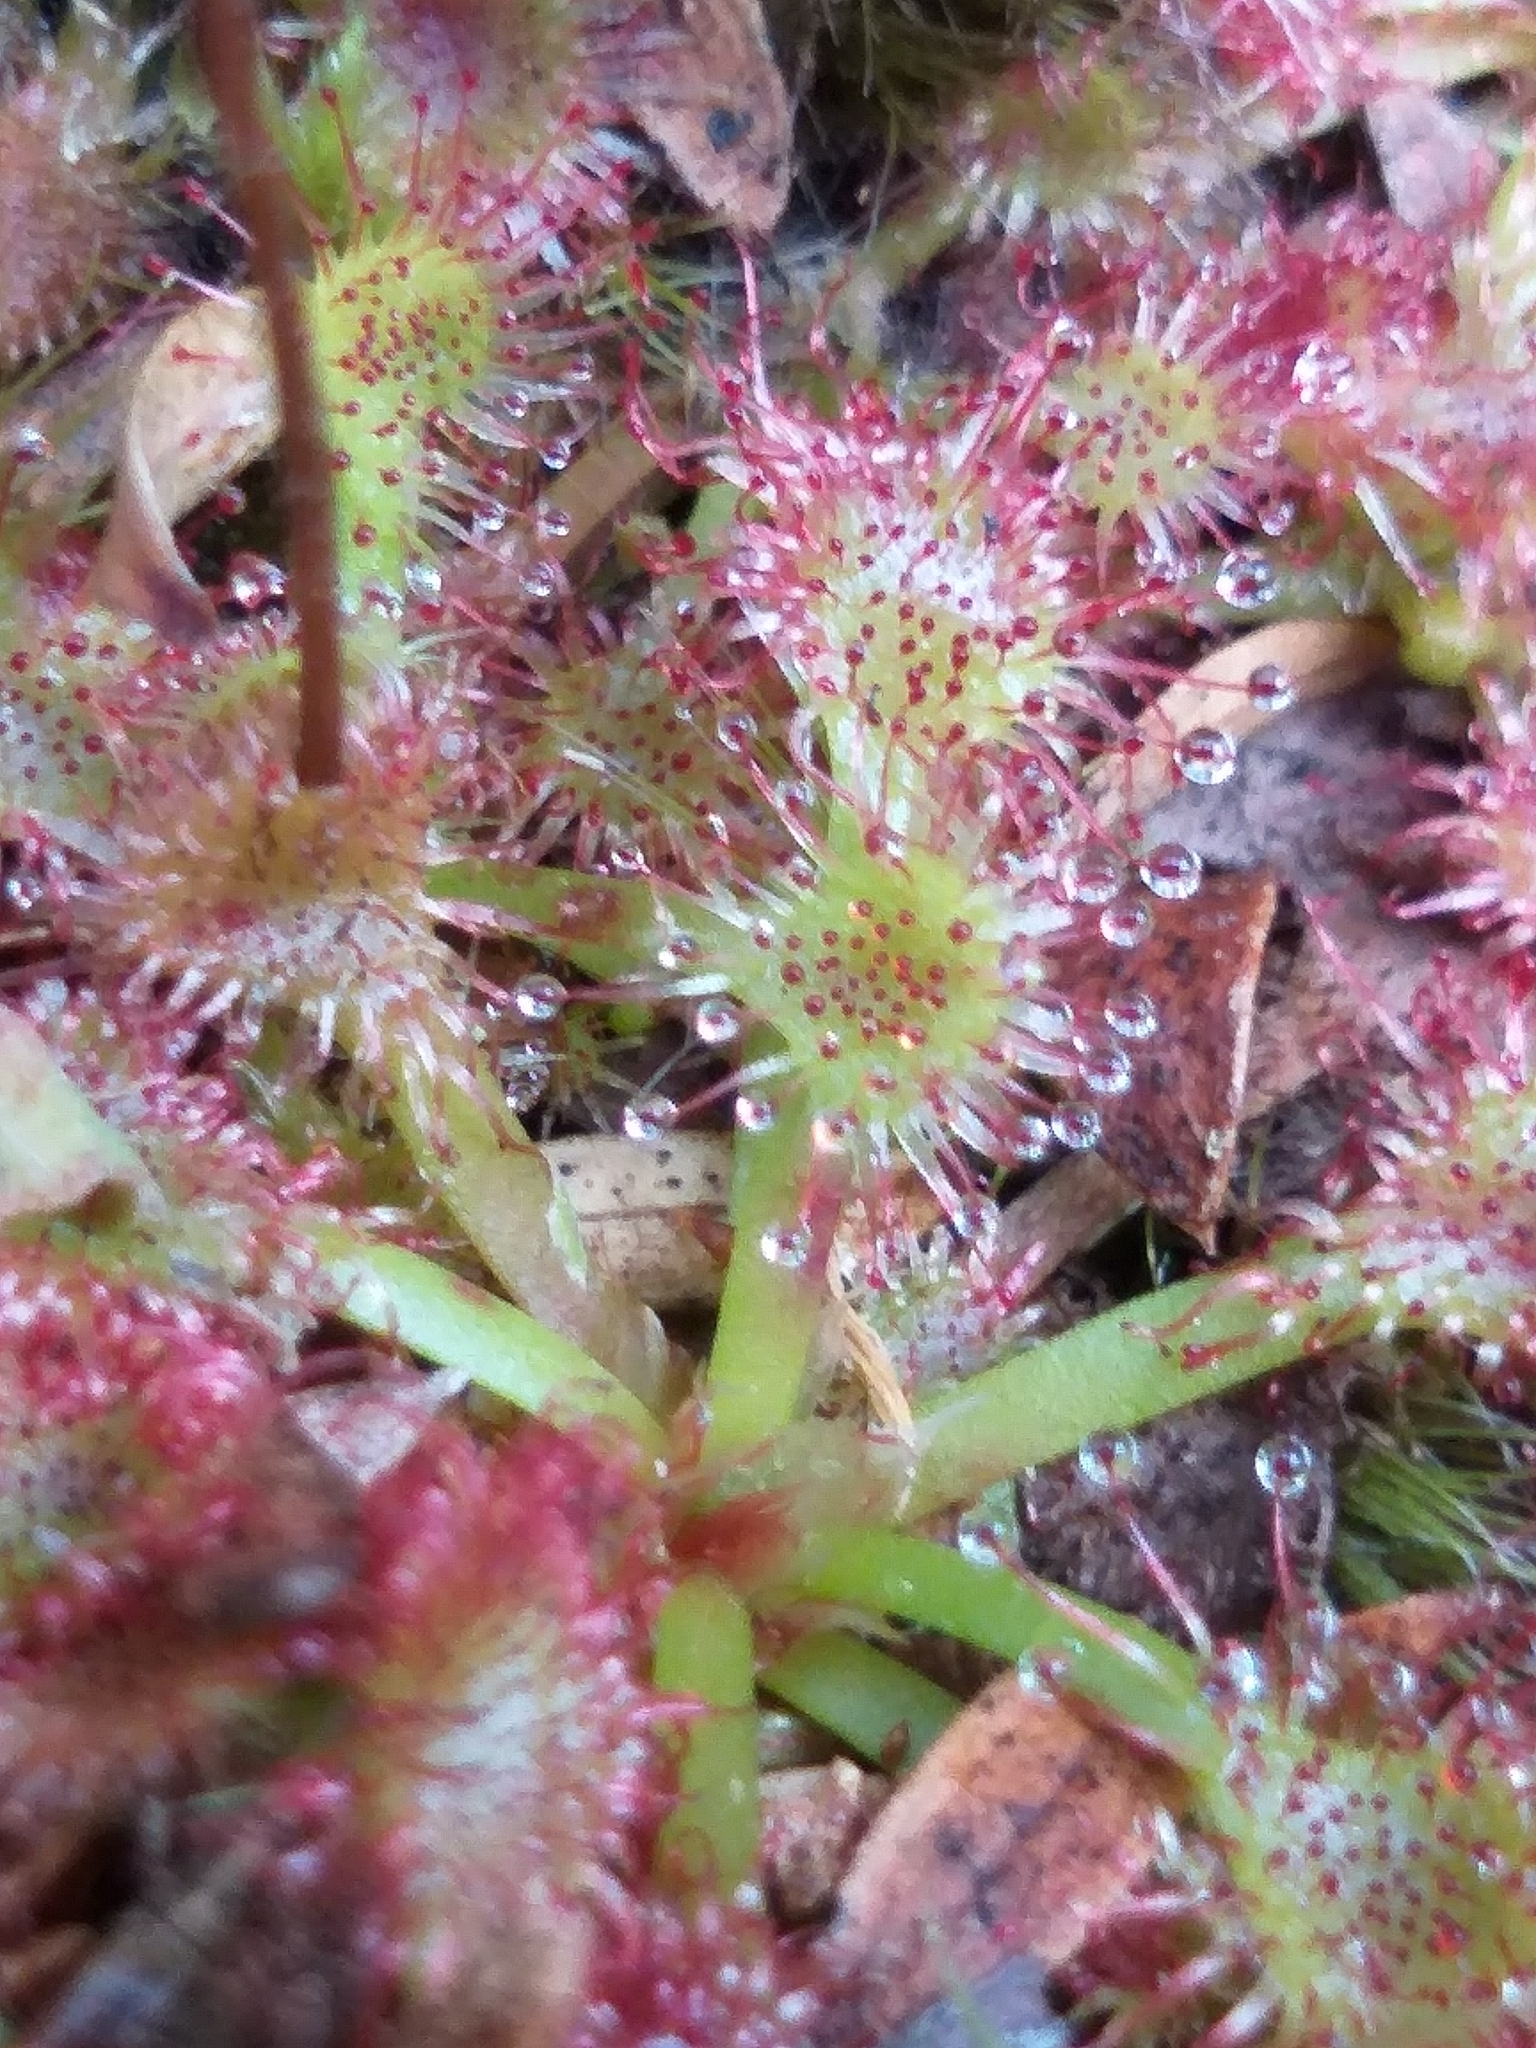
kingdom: Plantae
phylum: Tracheophyta
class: Magnoliopsida
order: Caryophyllales
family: Droseraceae
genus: Drosera
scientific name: Drosera spatulata
